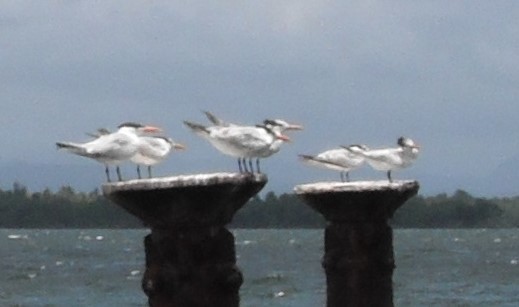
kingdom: Animalia
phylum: Chordata
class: Aves
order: Charadriiformes
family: Laridae
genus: Thalasseus
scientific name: Thalasseus maximus
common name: Royal tern
